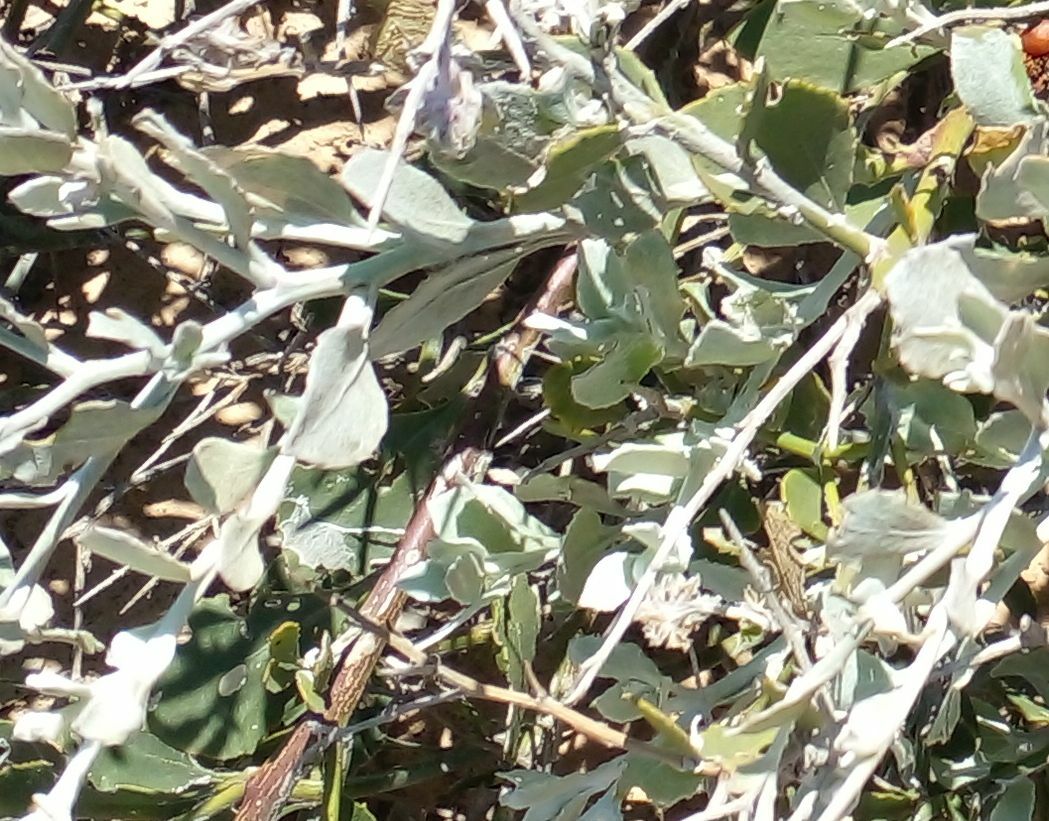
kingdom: Plantae
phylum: Tracheophyta
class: Magnoliopsida
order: Asterales
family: Asteraceae
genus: Osteospermum
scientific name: Osteospermum incanum
